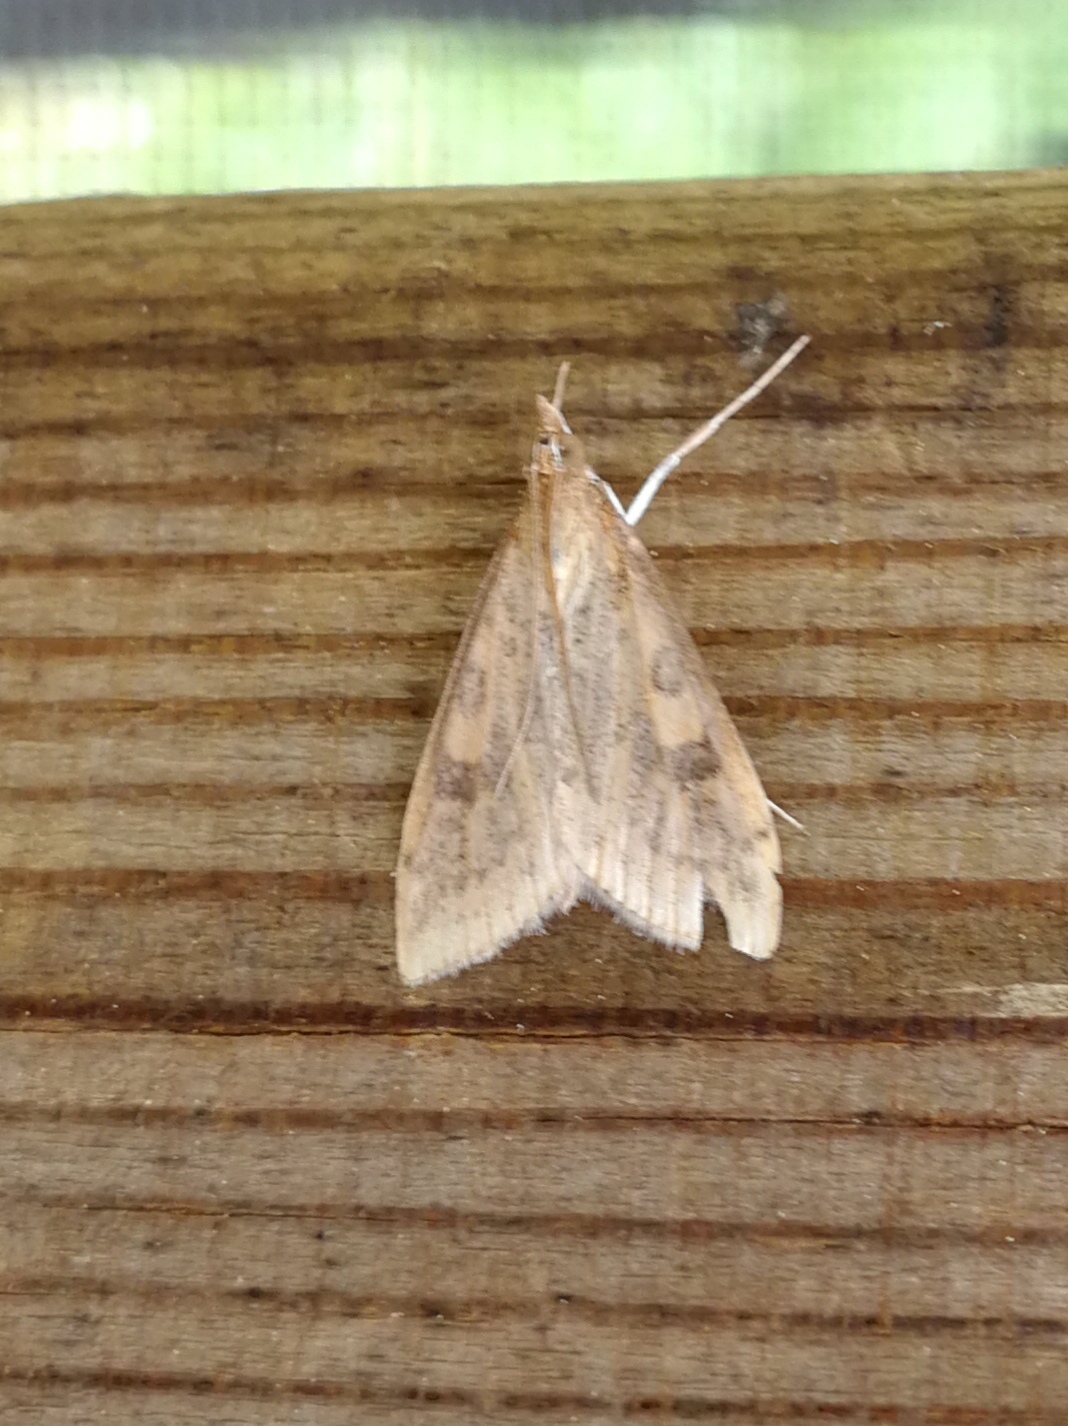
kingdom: Animalia
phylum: Arthropoda
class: Insecta
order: Lepidoptera
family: Crambidae
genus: Udea
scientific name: Udea ferrugalis
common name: Rusty dot
